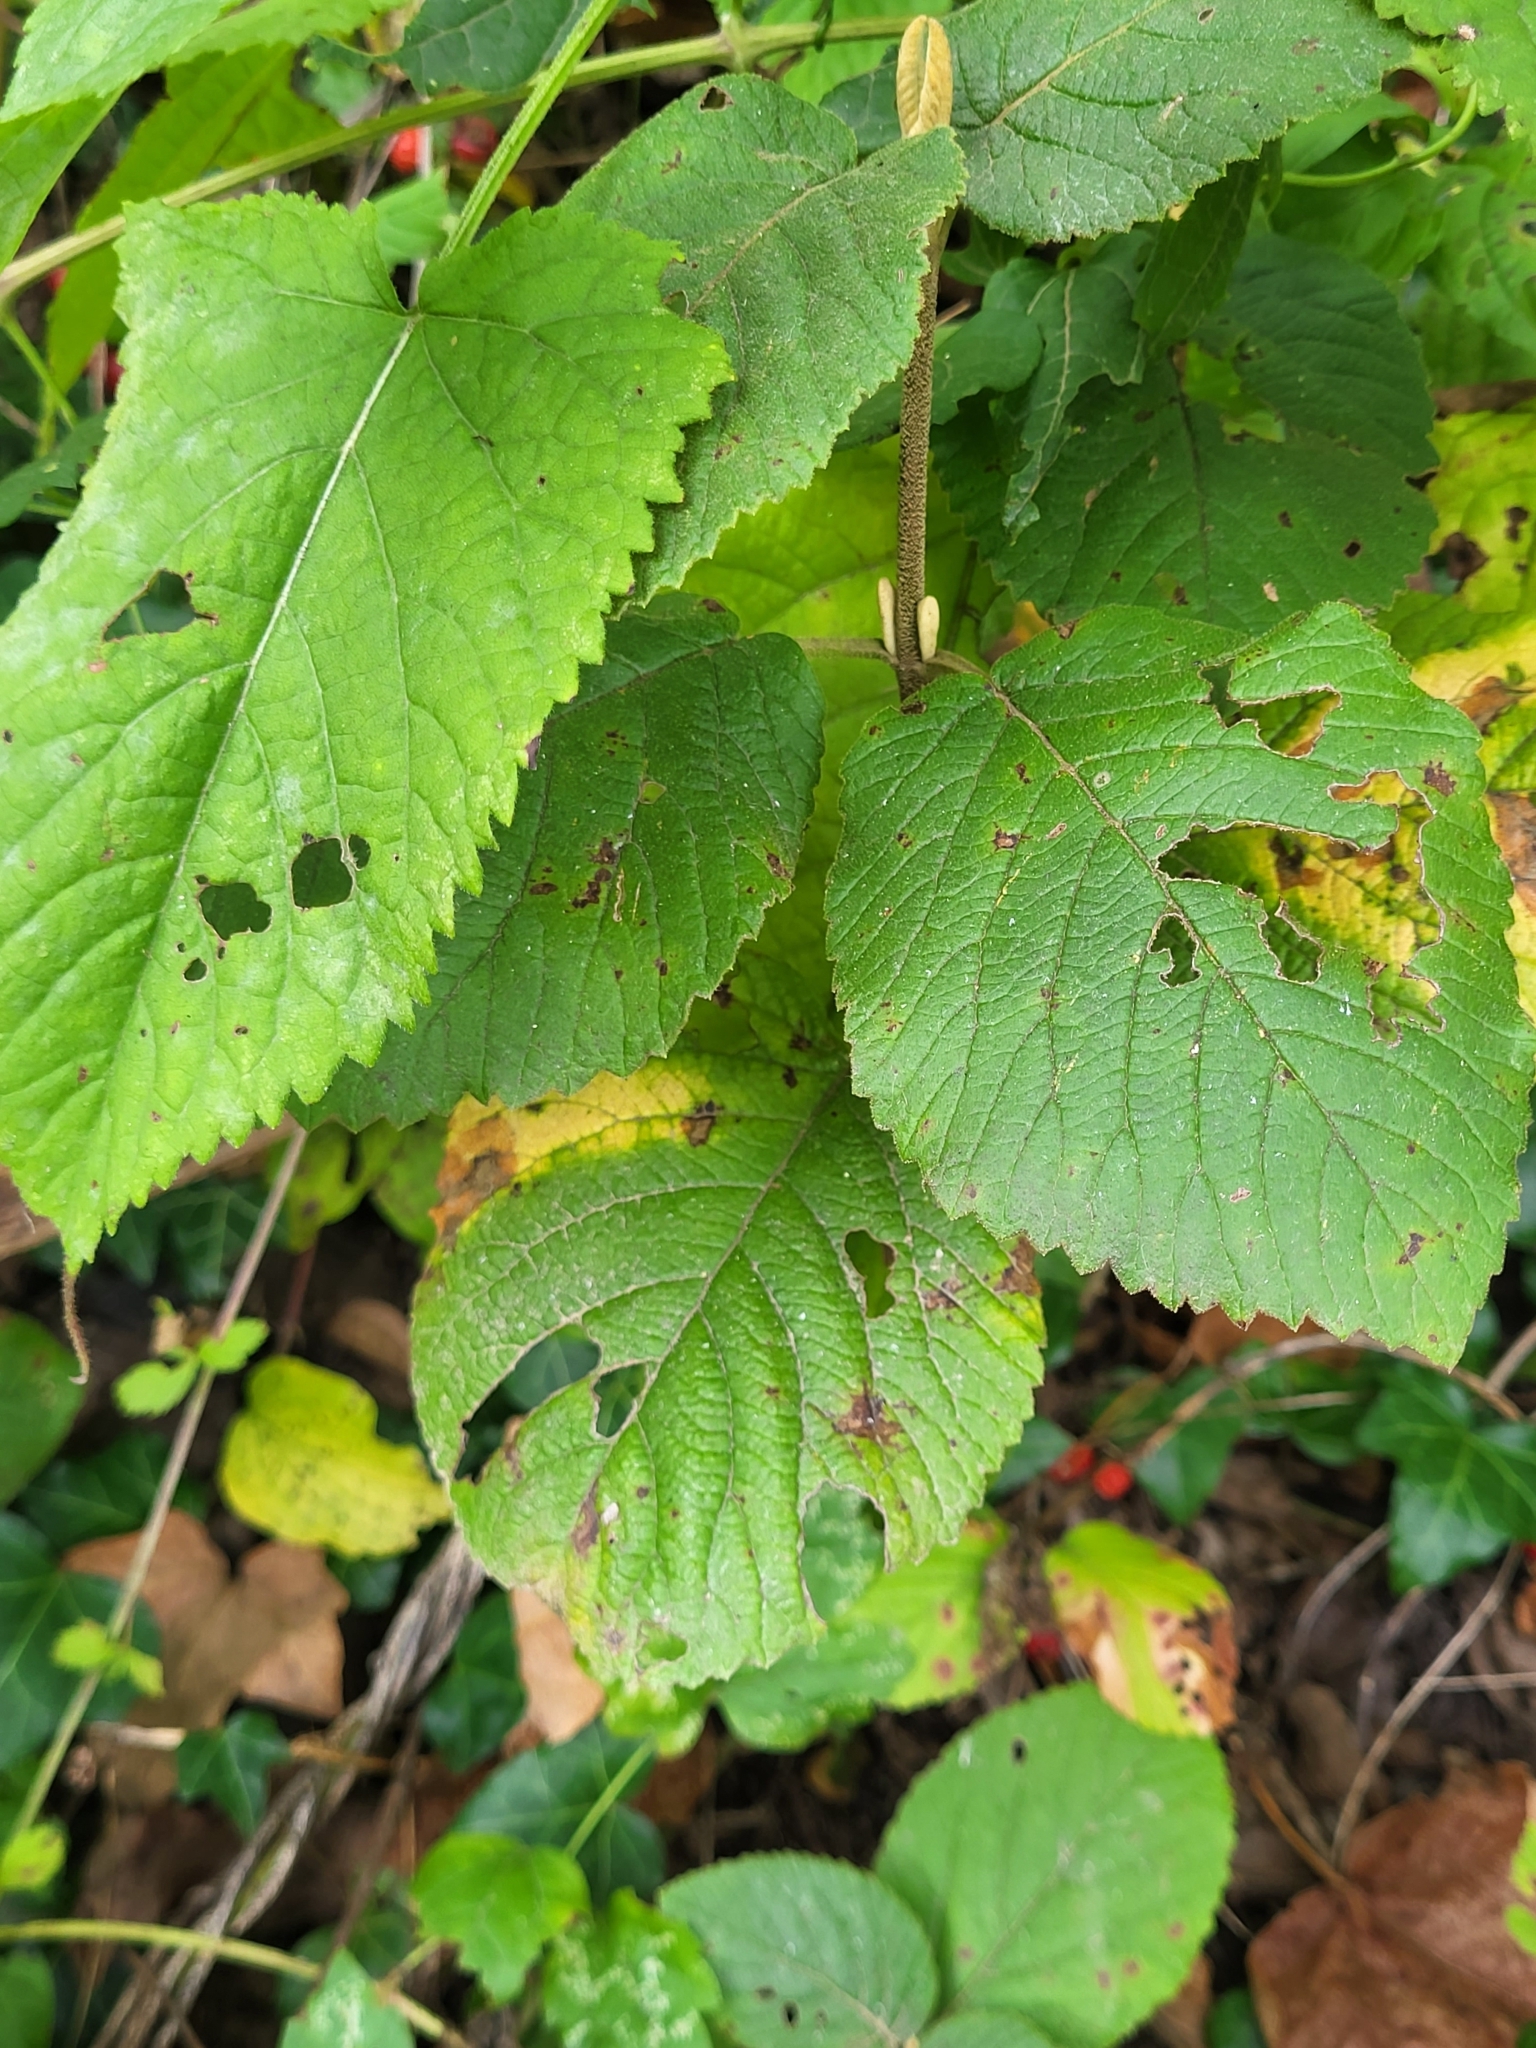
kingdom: Plantae
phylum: Tracheophyta
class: Magnoliopsida
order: Lamiales
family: Lamiaceae
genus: Salvia
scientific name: Salvia glutinosa
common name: Sticky clary
